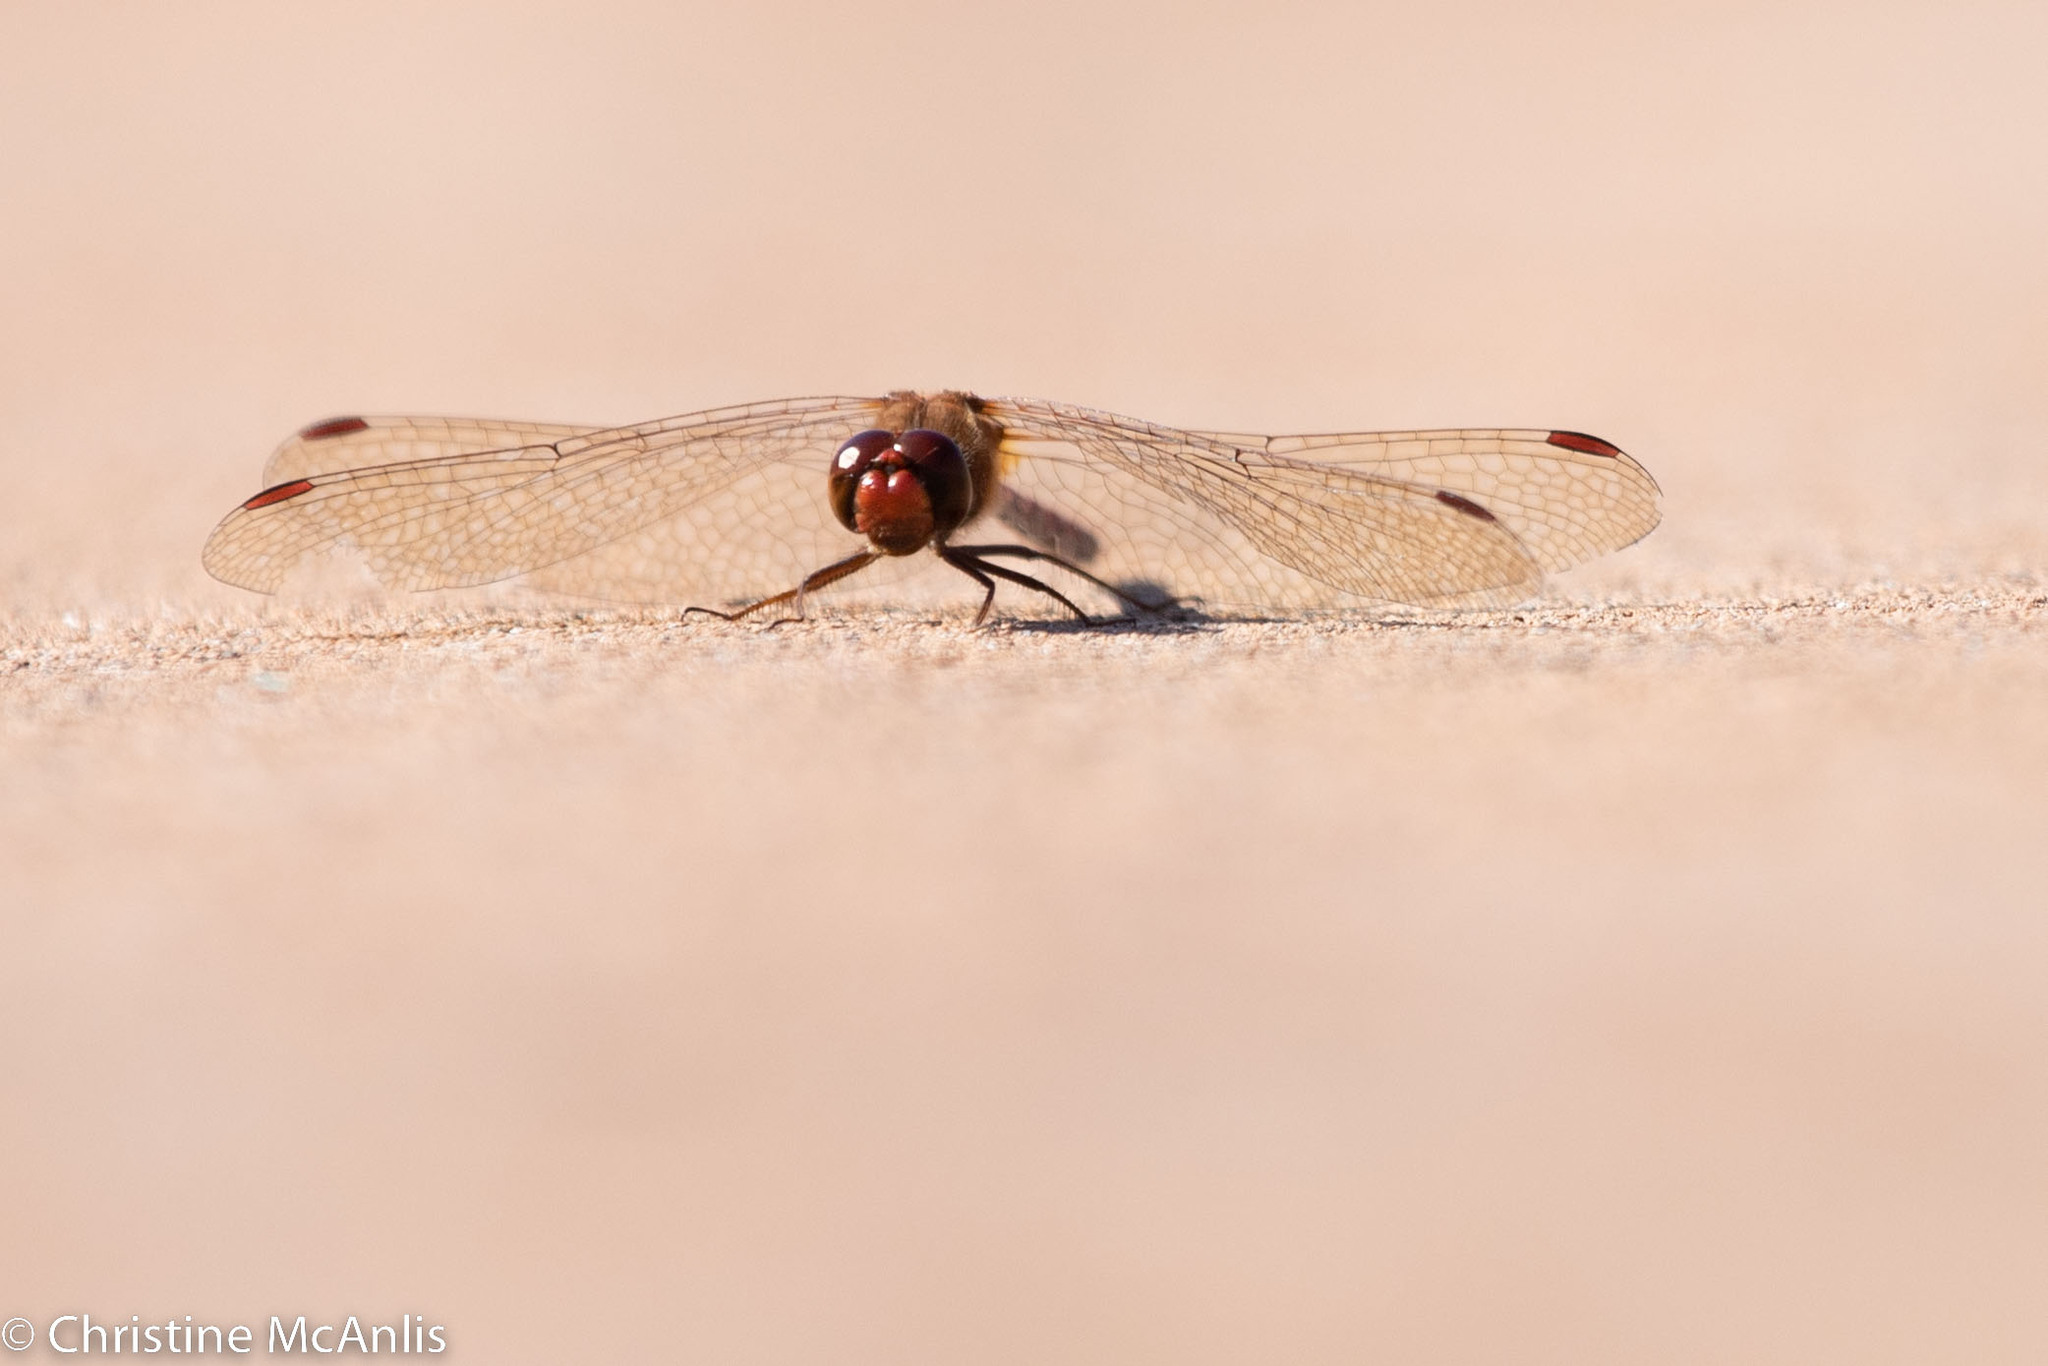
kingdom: Animalia
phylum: Arthropoda
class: Insecta
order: Odonata
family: Libellulidae
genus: Sympetrum
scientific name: Sympetrum vicinum
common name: Autumn meadowhawk
